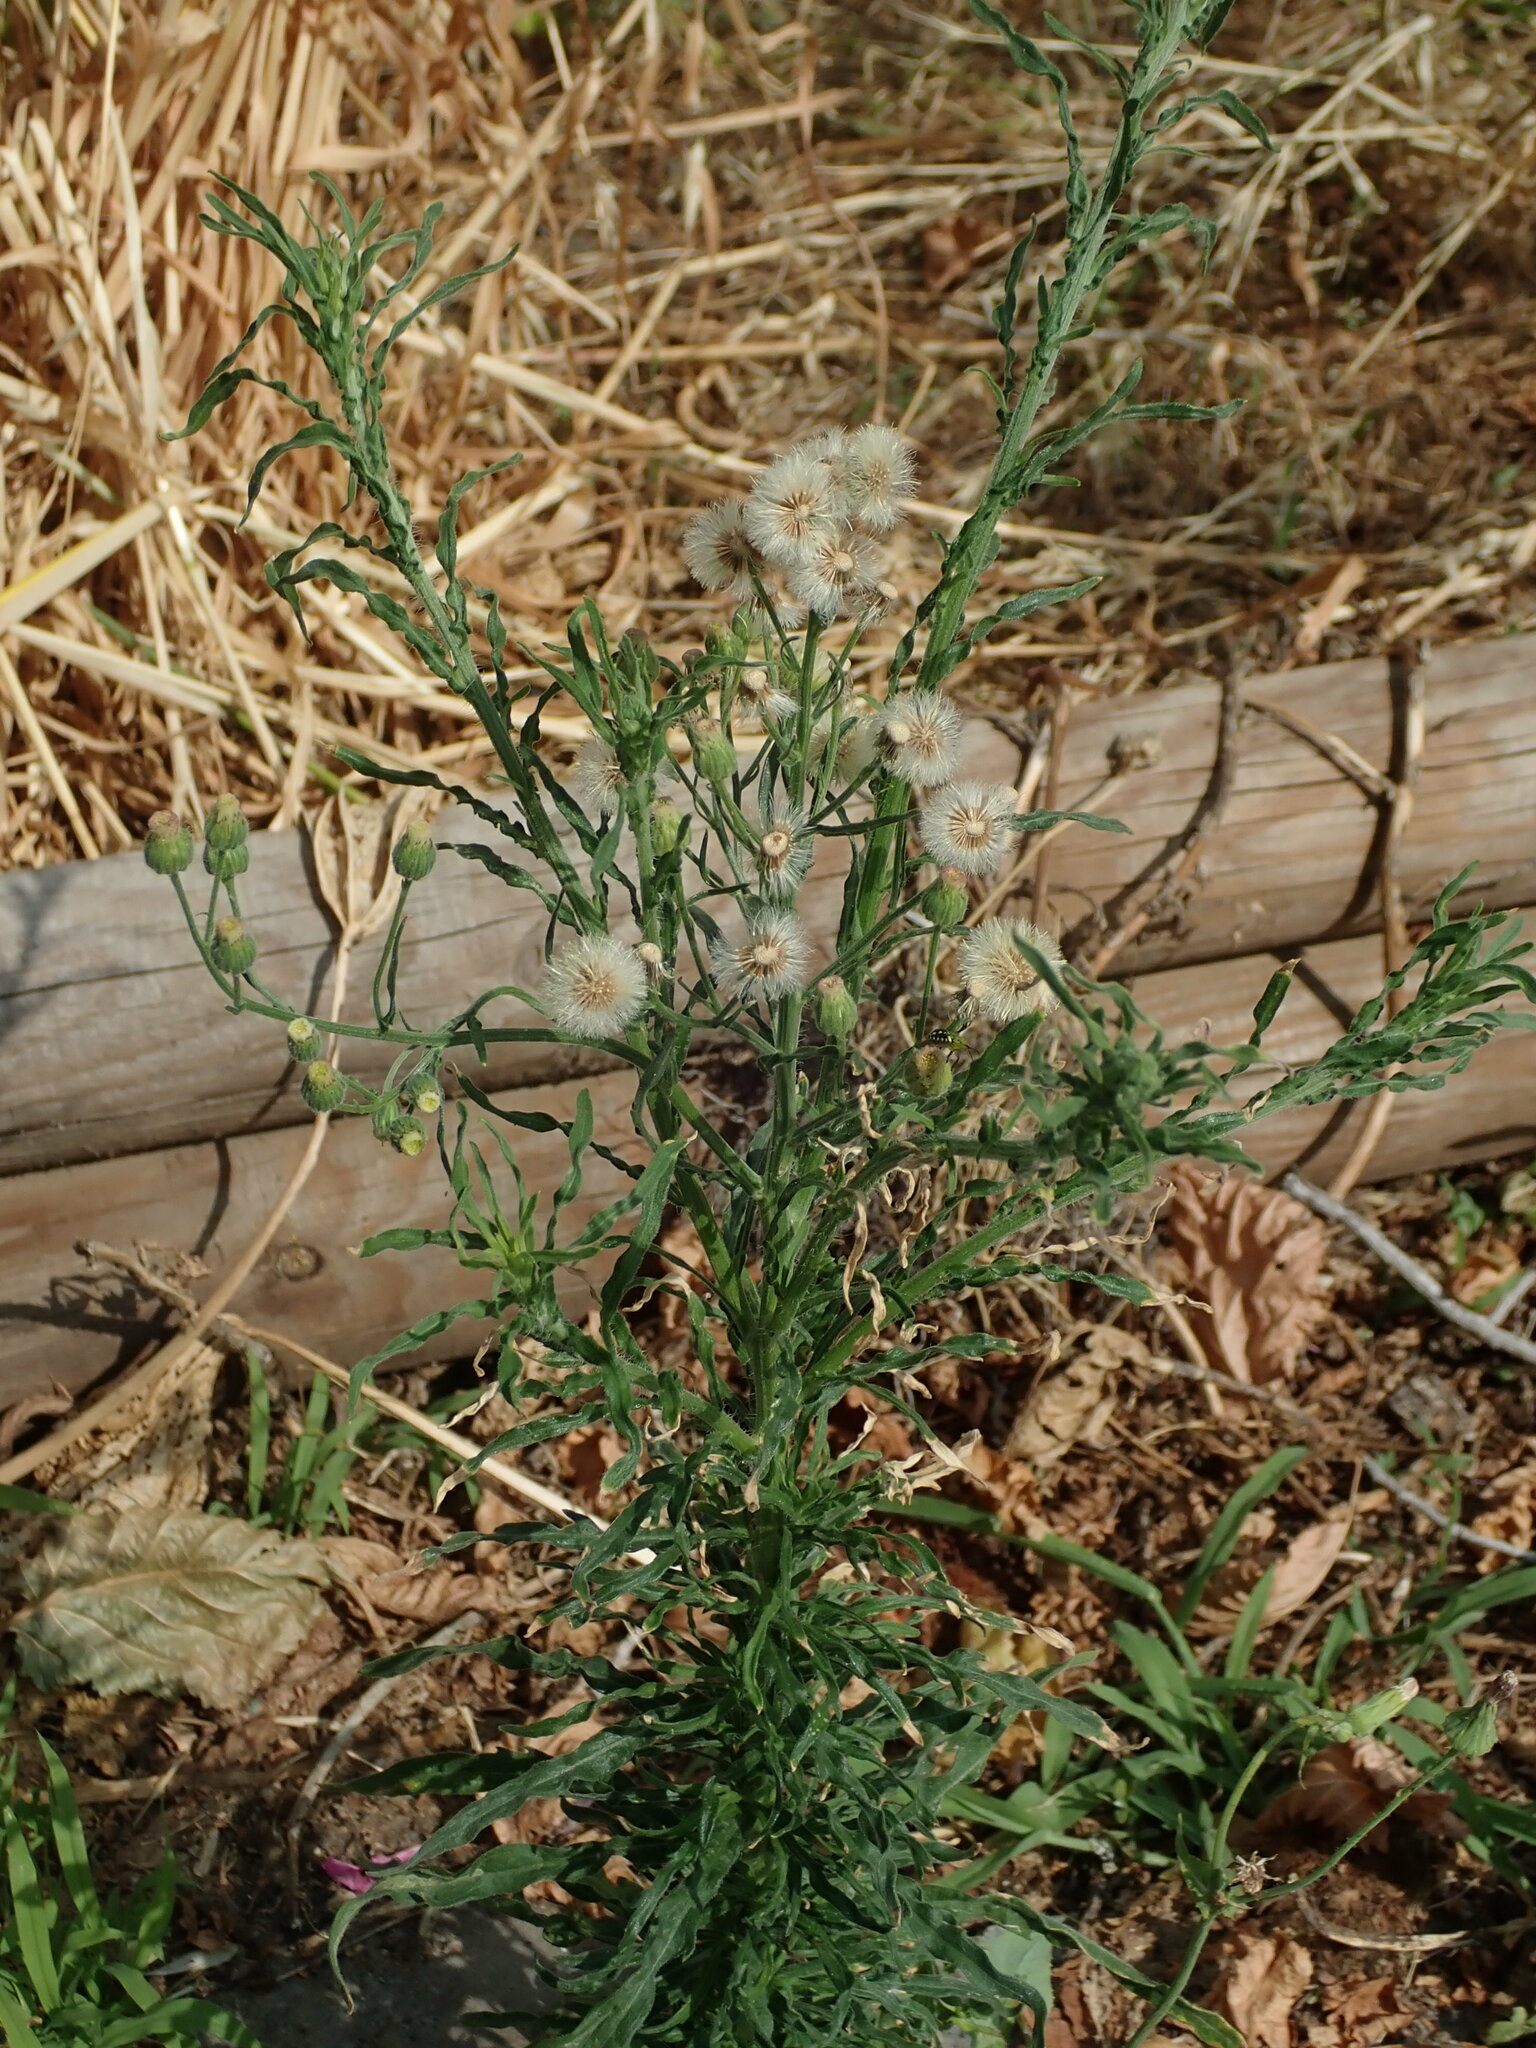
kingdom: Plantae
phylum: Tracheophyta
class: Magnoliopsida
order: Asterales
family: Asteraceae
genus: Erigeron
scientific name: Erigeron bonariensis
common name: Argentine fleabane
